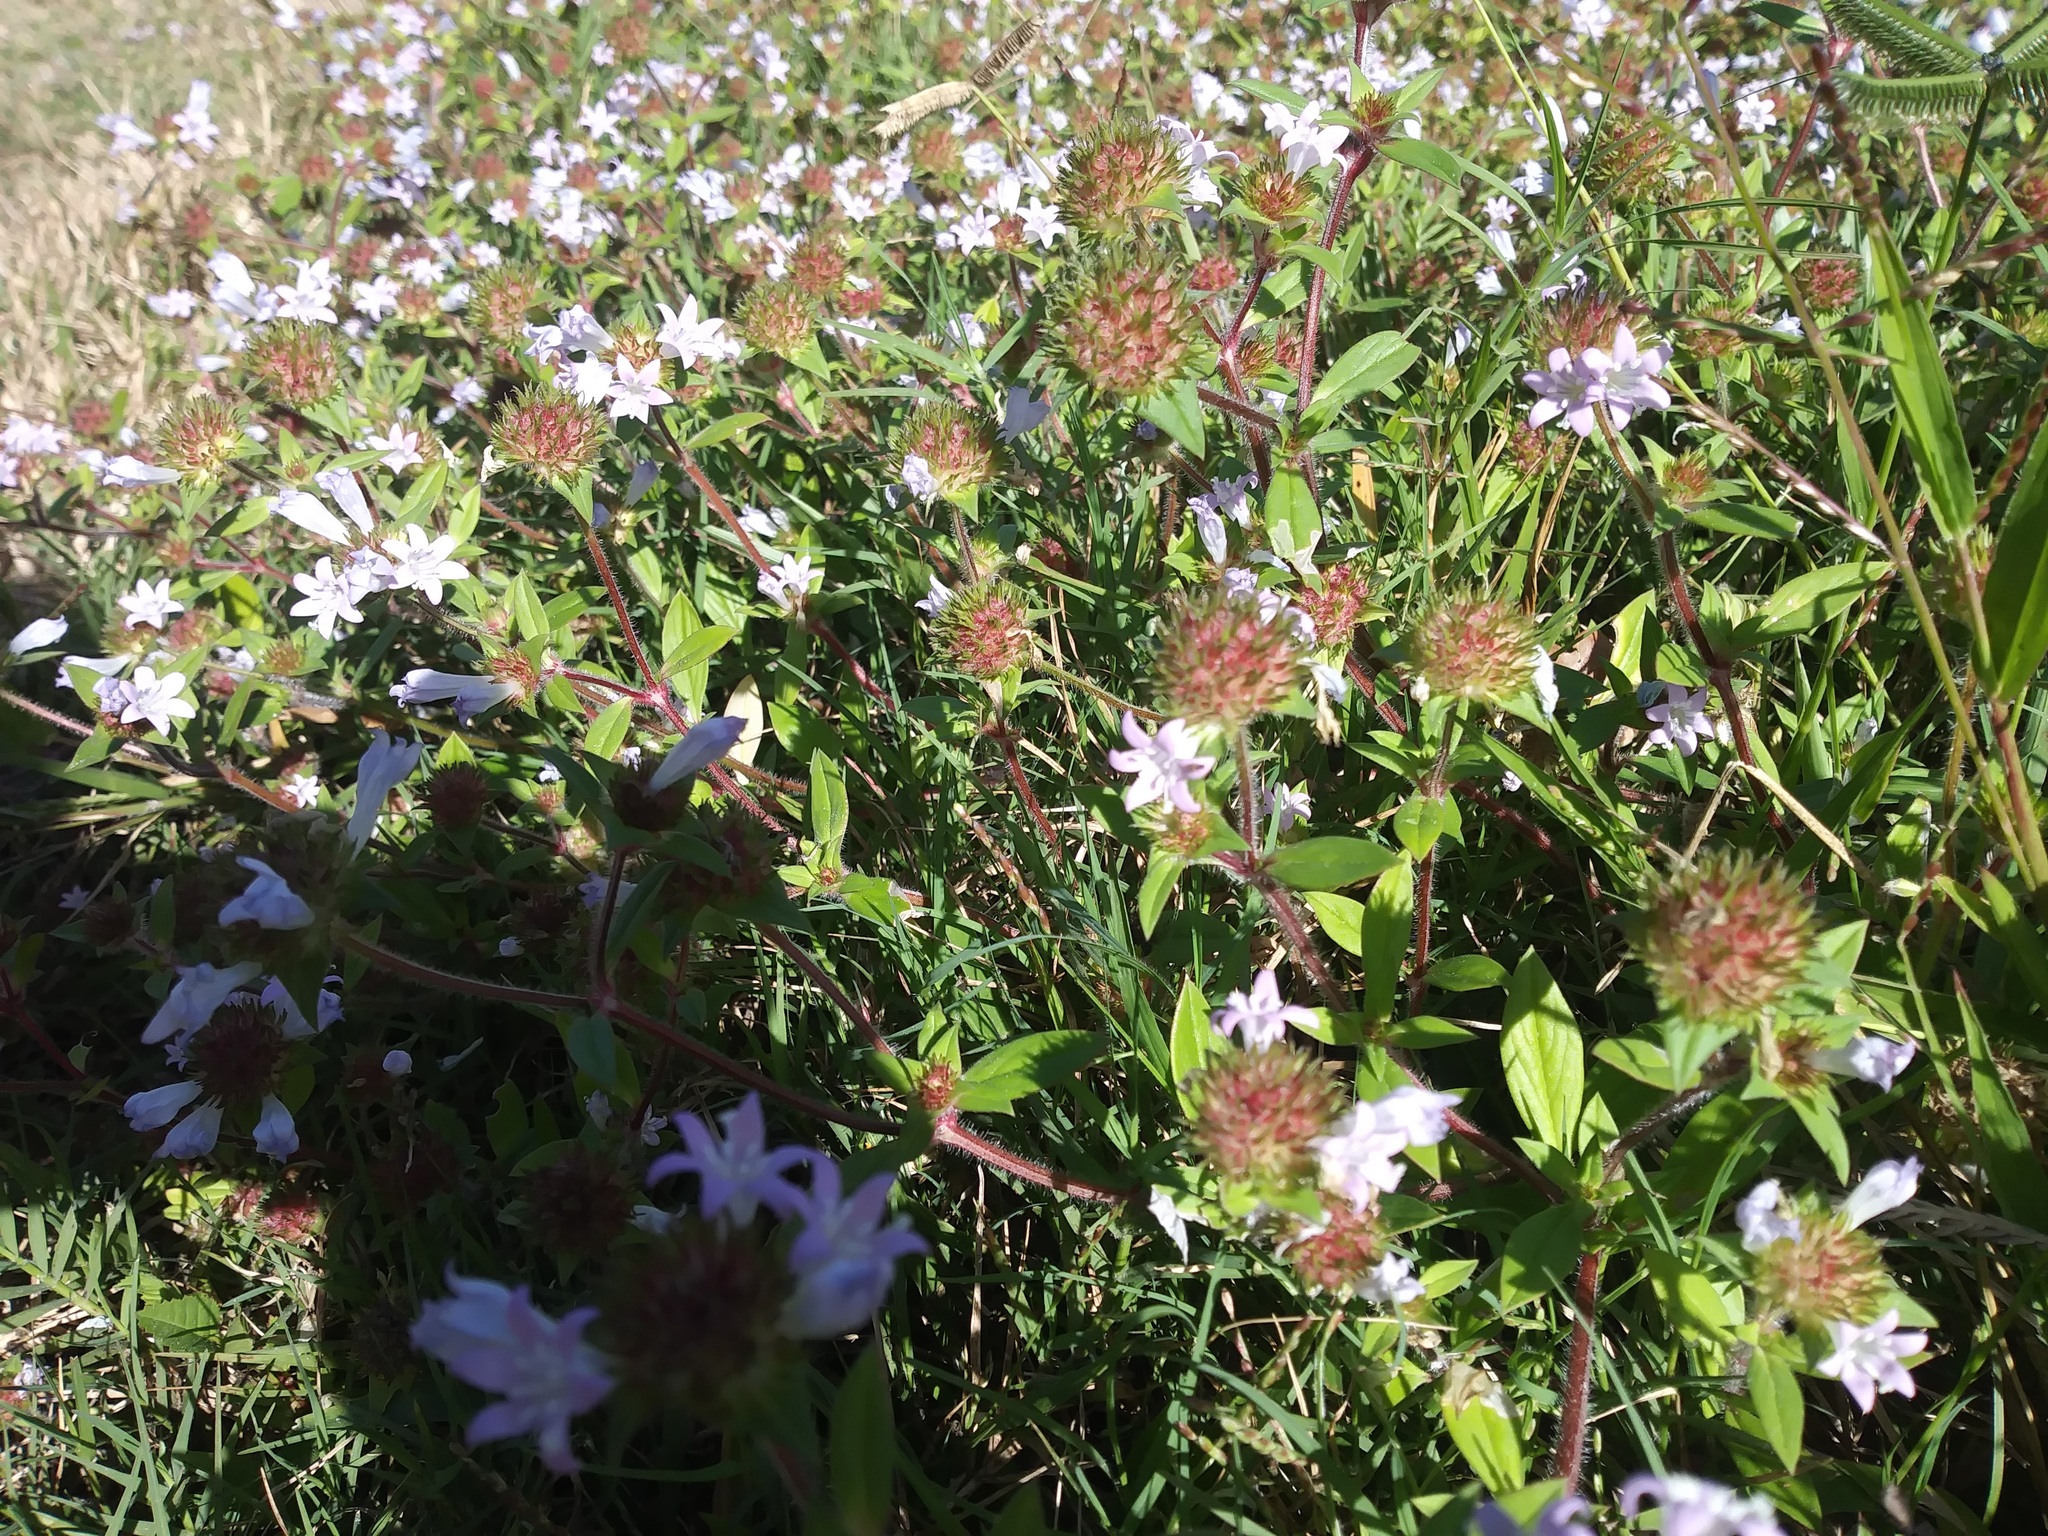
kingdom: Plantae
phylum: Tracheophyta
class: Magnoliopsida
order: Gentianales
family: Rubiaceae
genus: Richardia
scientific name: Richardia grandiflora
